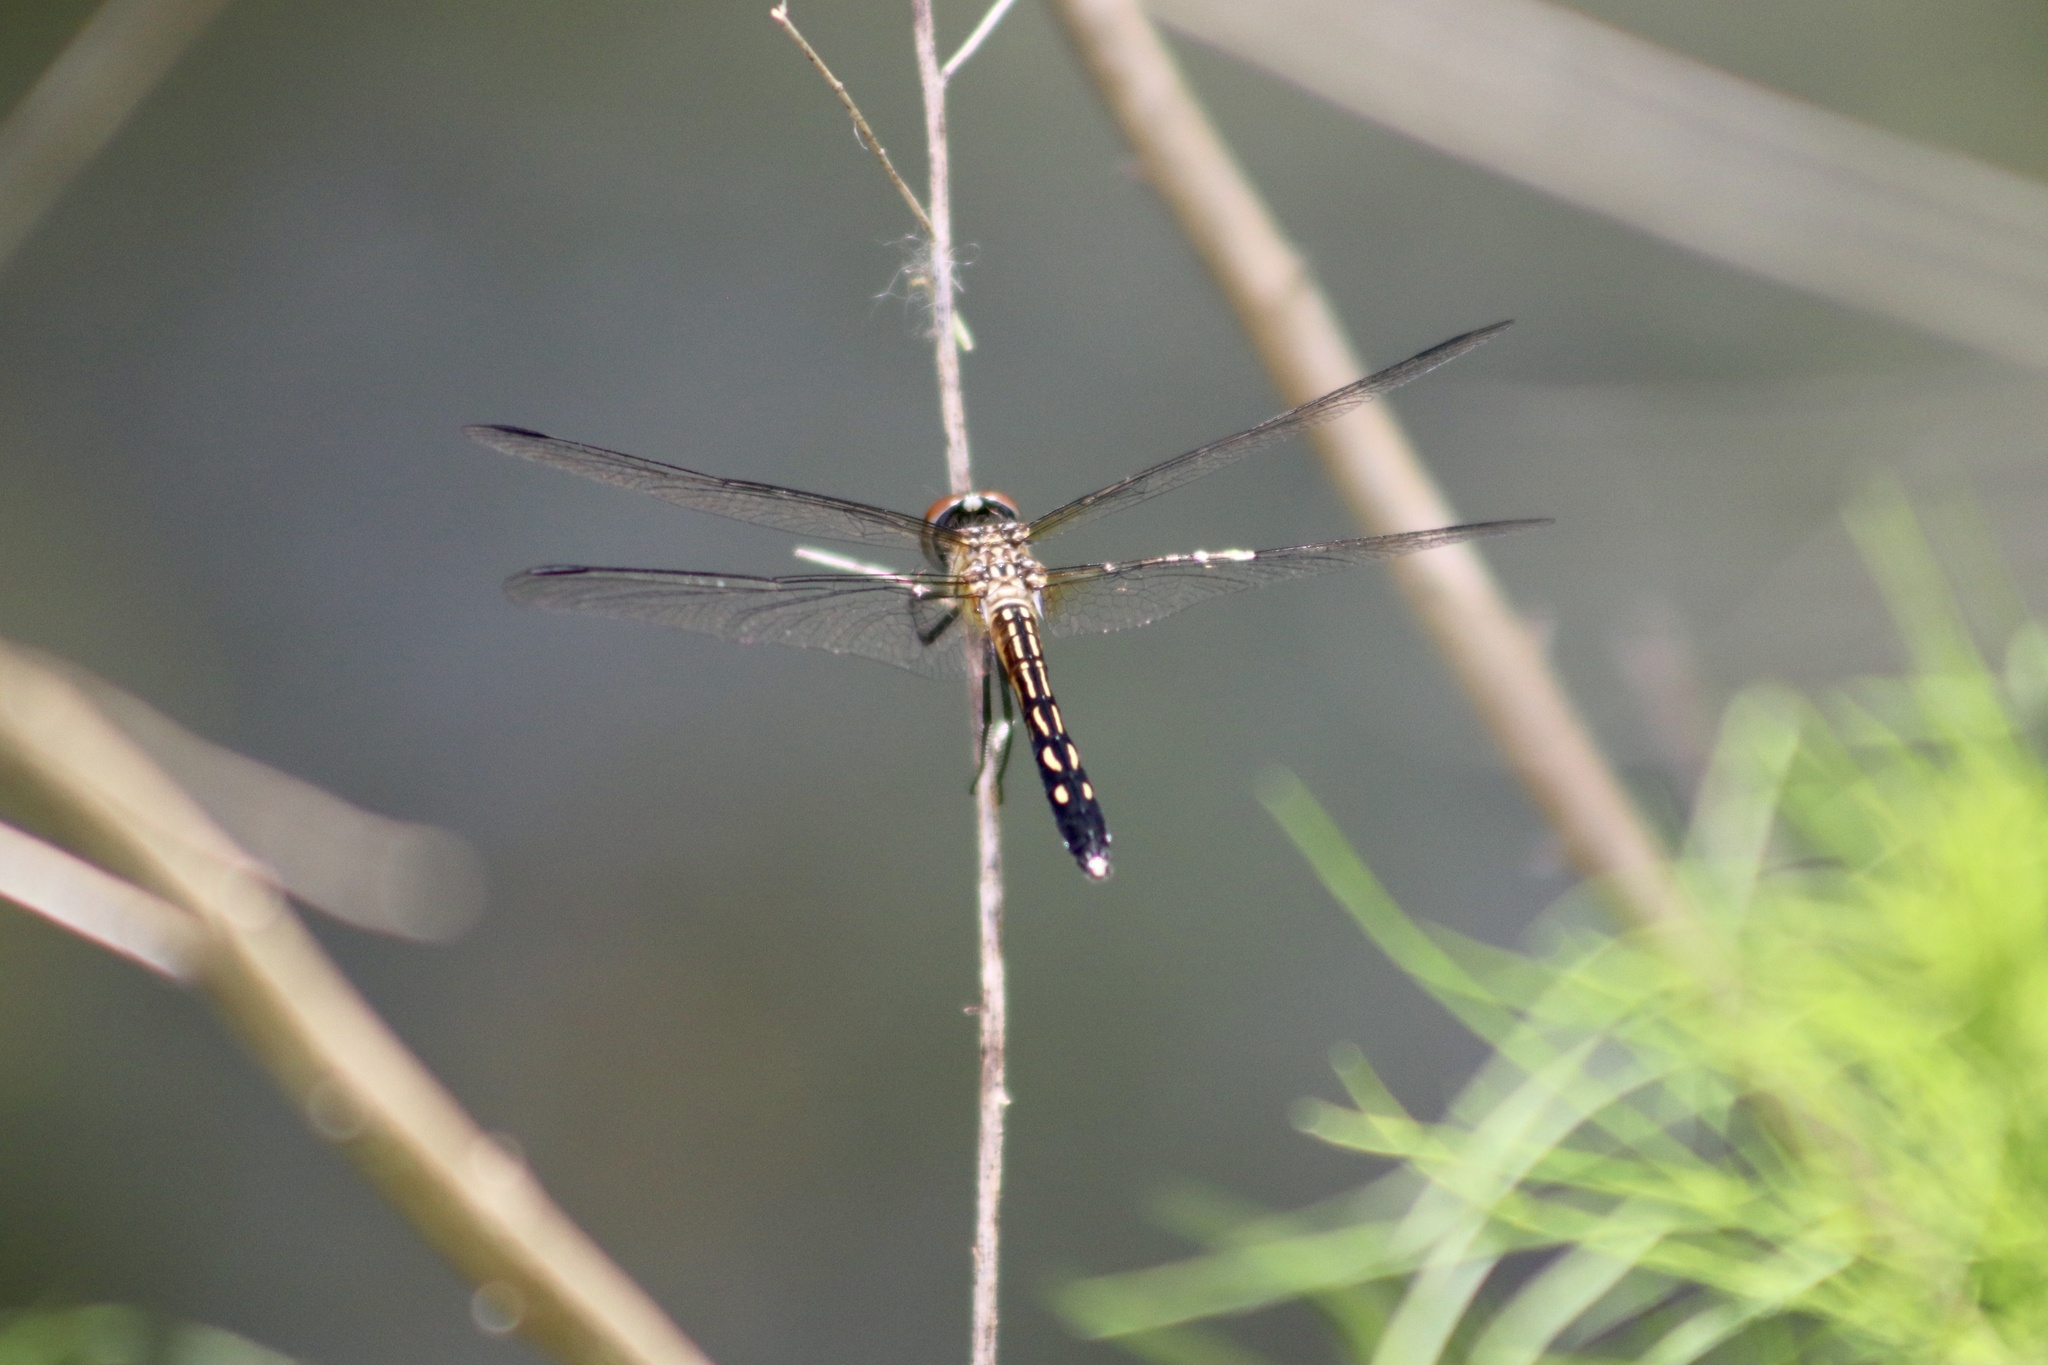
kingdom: Animalia
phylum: Arthropoda
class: Insecta
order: Odonata
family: Libellulidae
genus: Pachydiplax
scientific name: Pachydiplax longipennis
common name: Blue dasher
